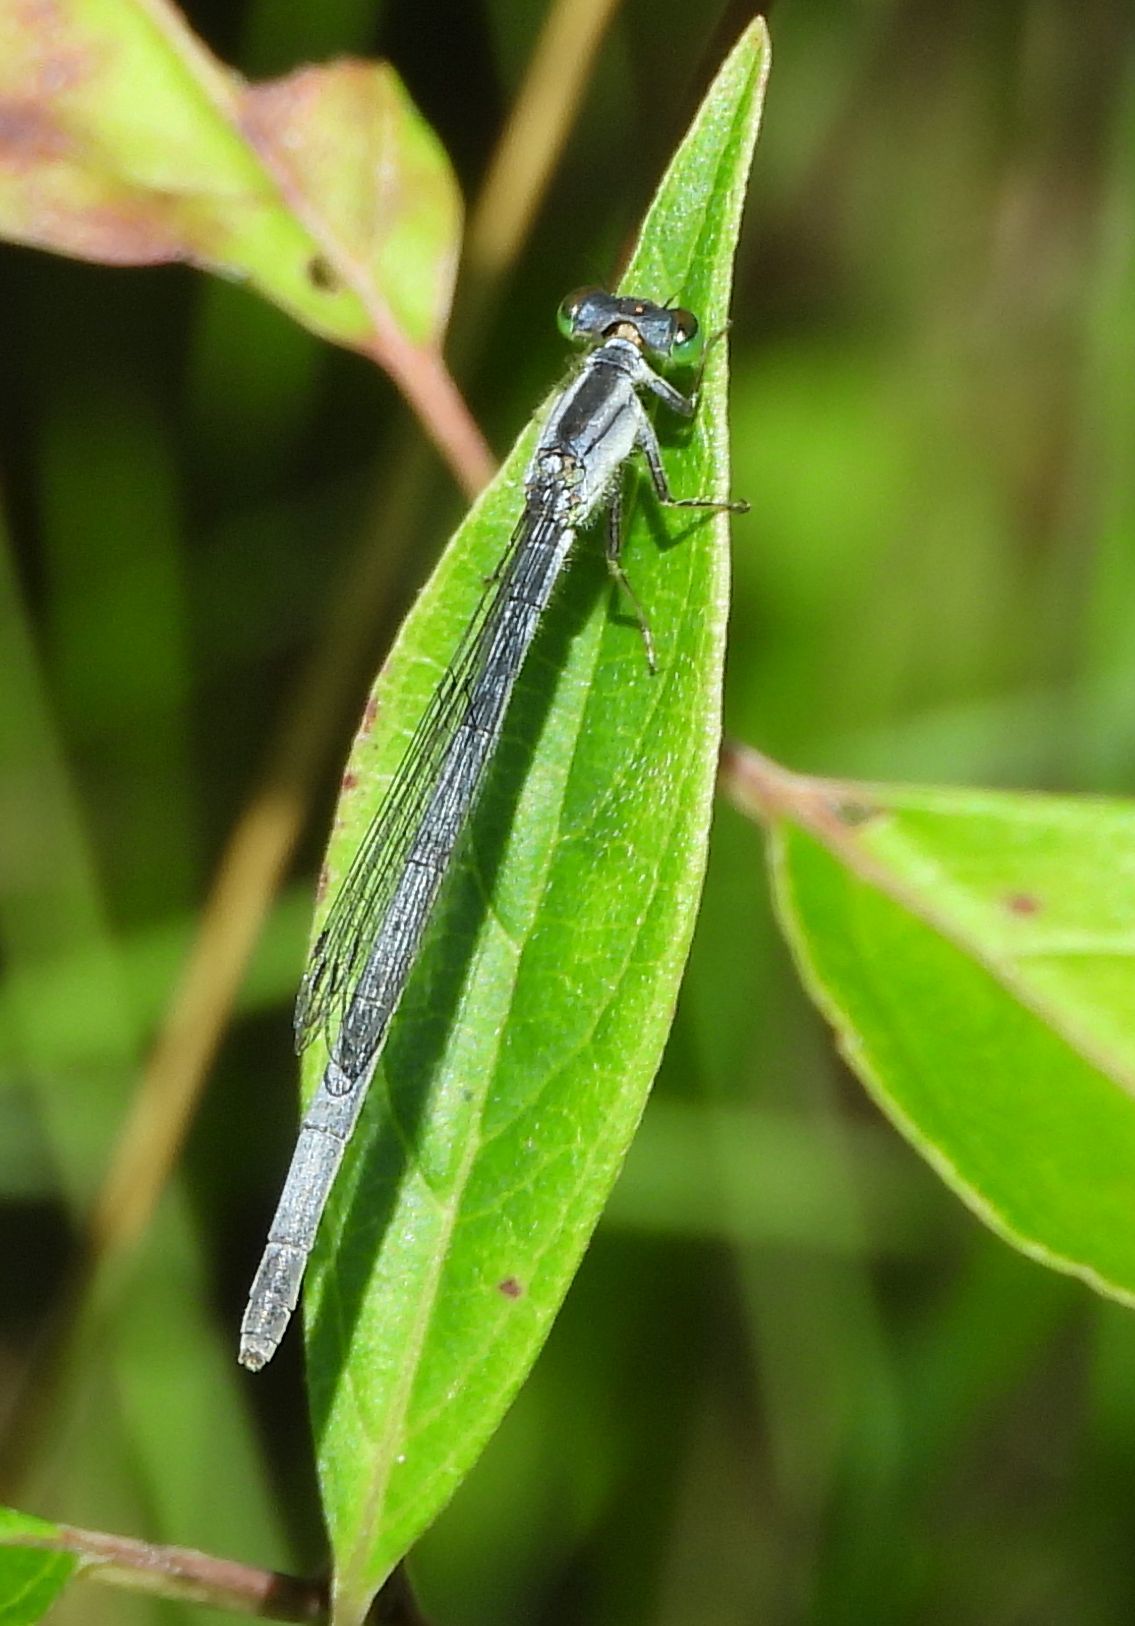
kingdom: Animalia
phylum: Arthropoda
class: Insecta
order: Odonata
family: Coenagrionidae
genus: Ischnura
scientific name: Ischnura verticalis
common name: Eastern forktail
